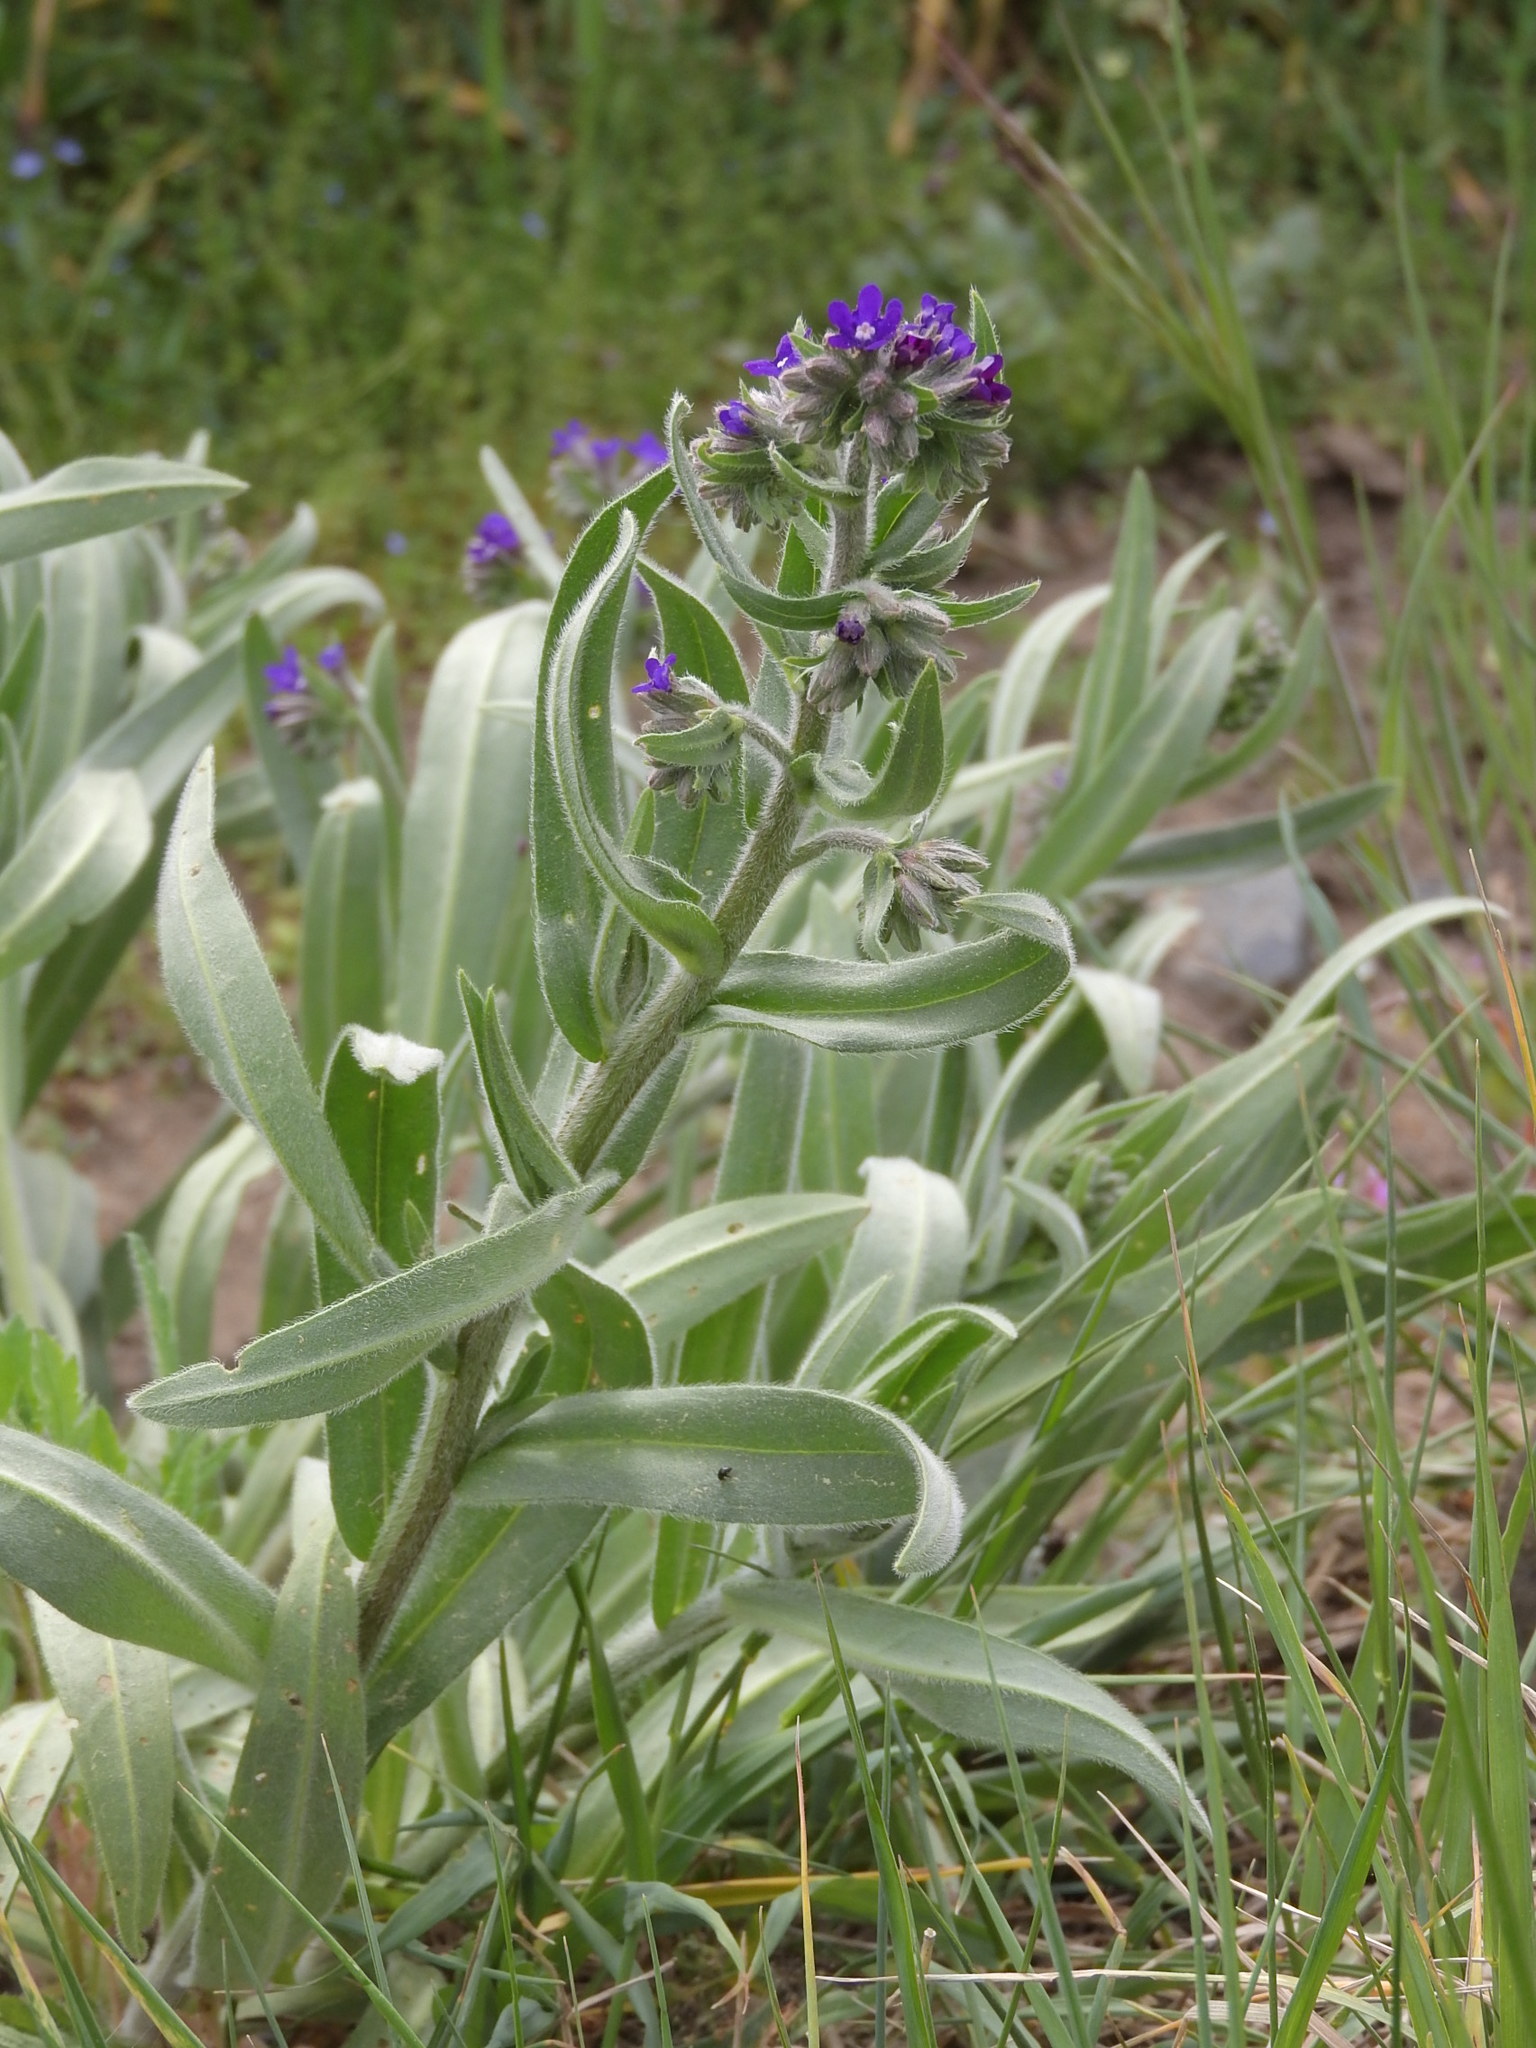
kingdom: Plantae
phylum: Tracheophyta
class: Magnoliopsida
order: Boraginales
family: Boraginaceae
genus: Anchusa
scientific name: Anchusa officinalis
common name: Alkanet
